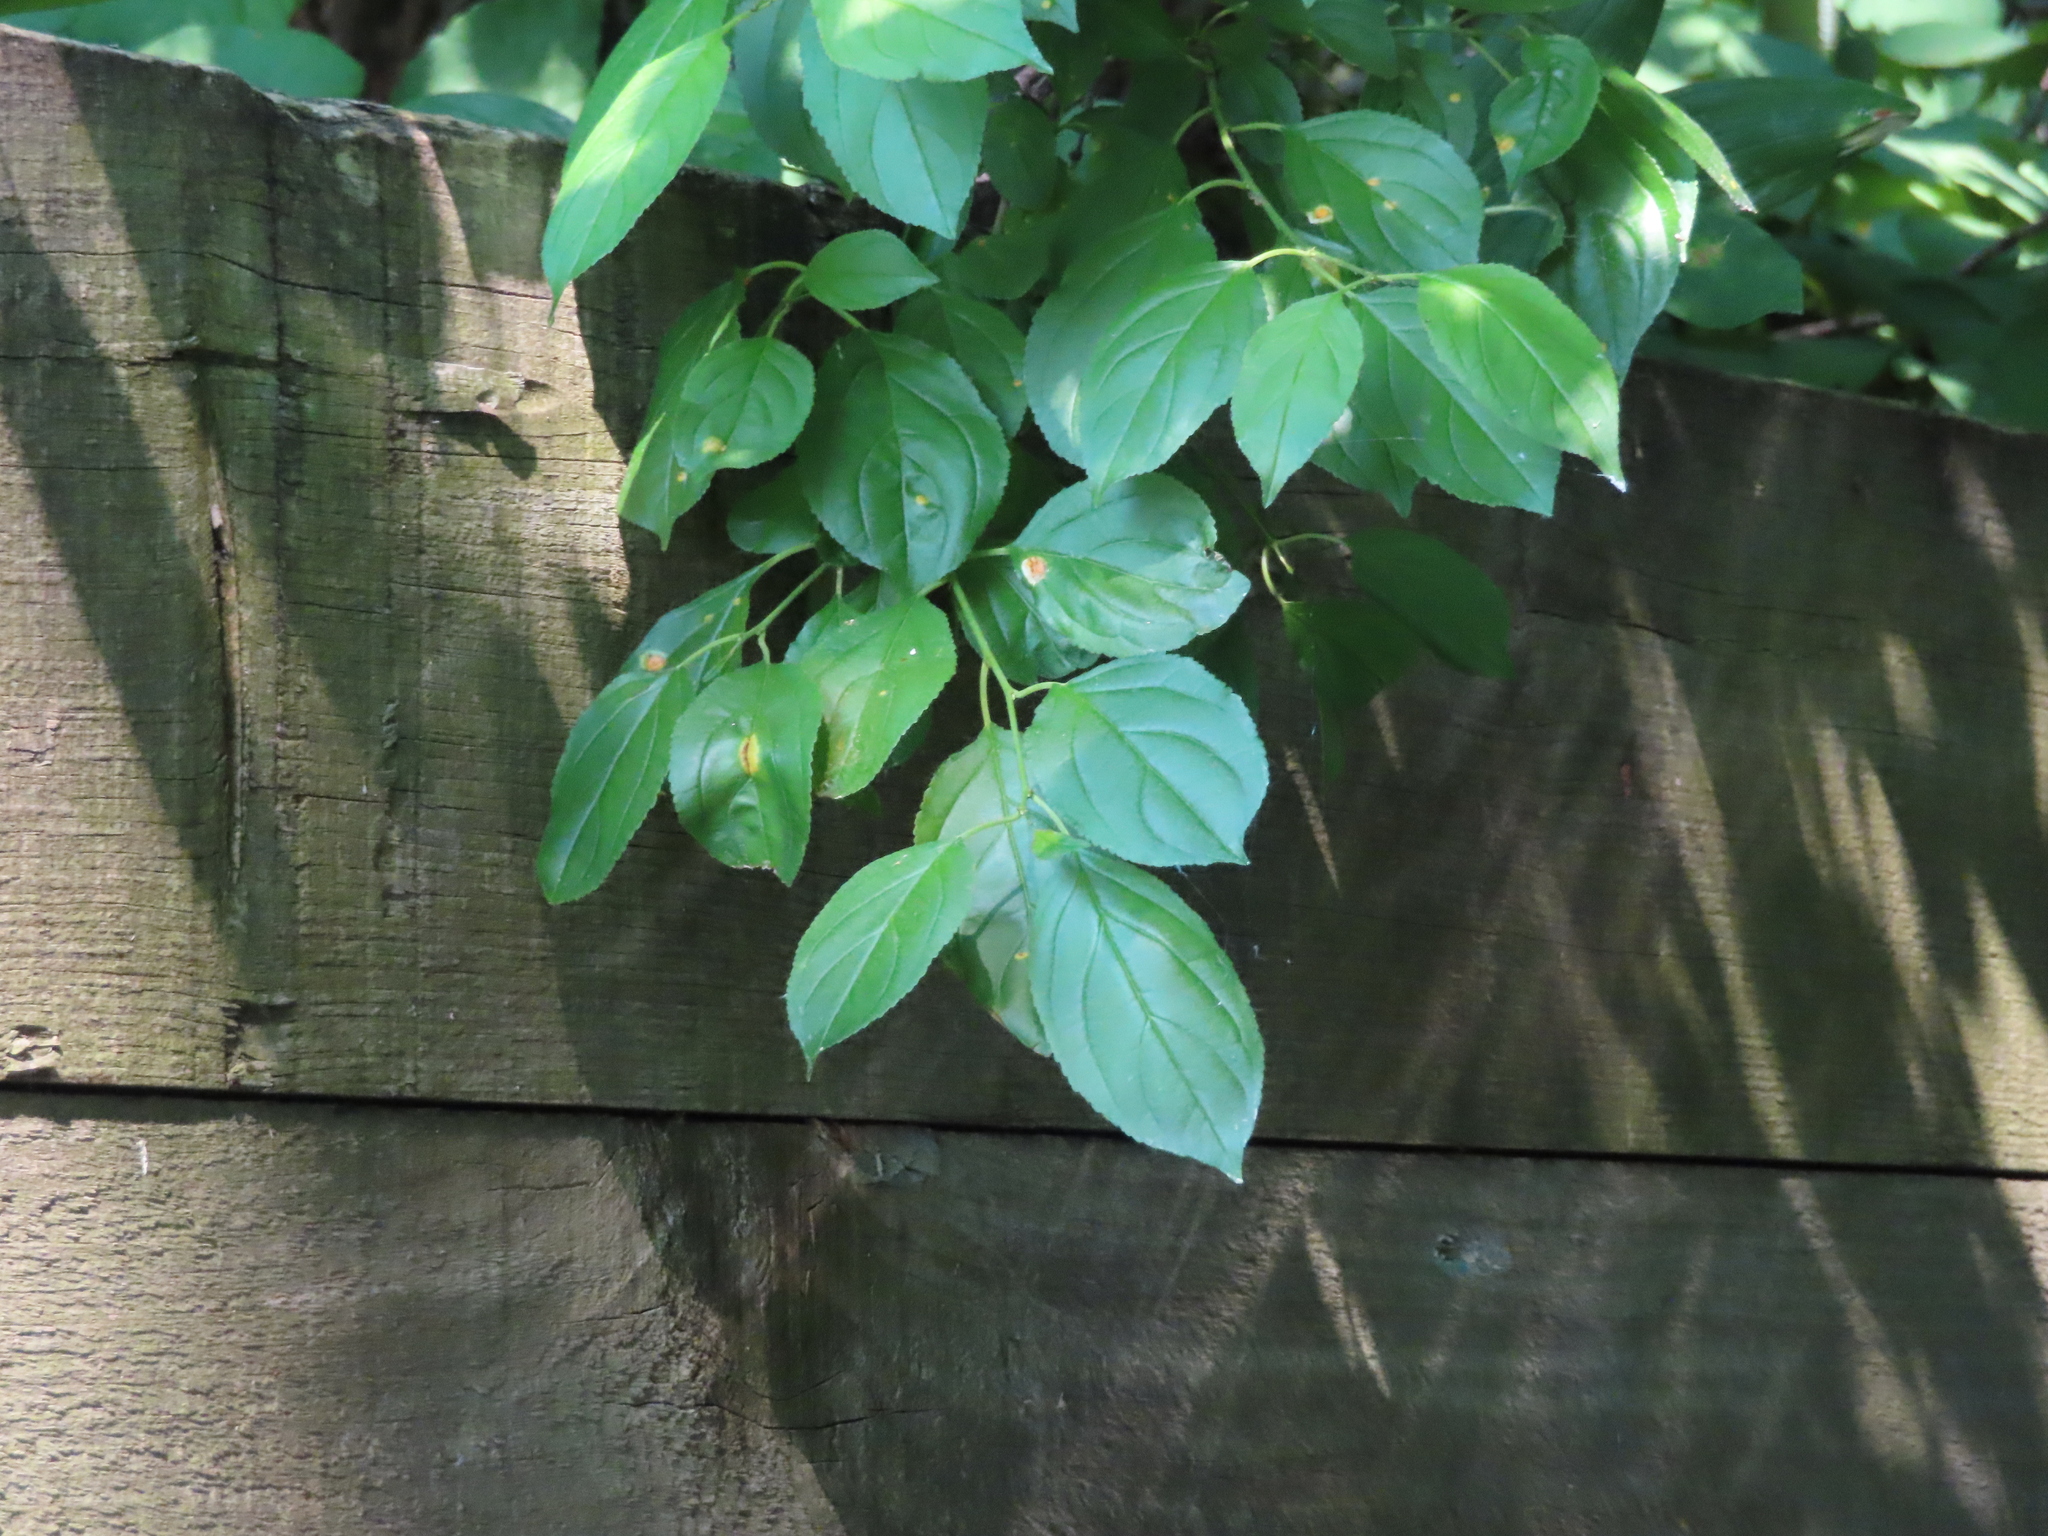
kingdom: Plantae
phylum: Tracheophyta
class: Magnoliopsida
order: Rosales
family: Rhamnaceae
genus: Rhamnus
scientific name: Rhamnus cathartica
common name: Common buckthorn
